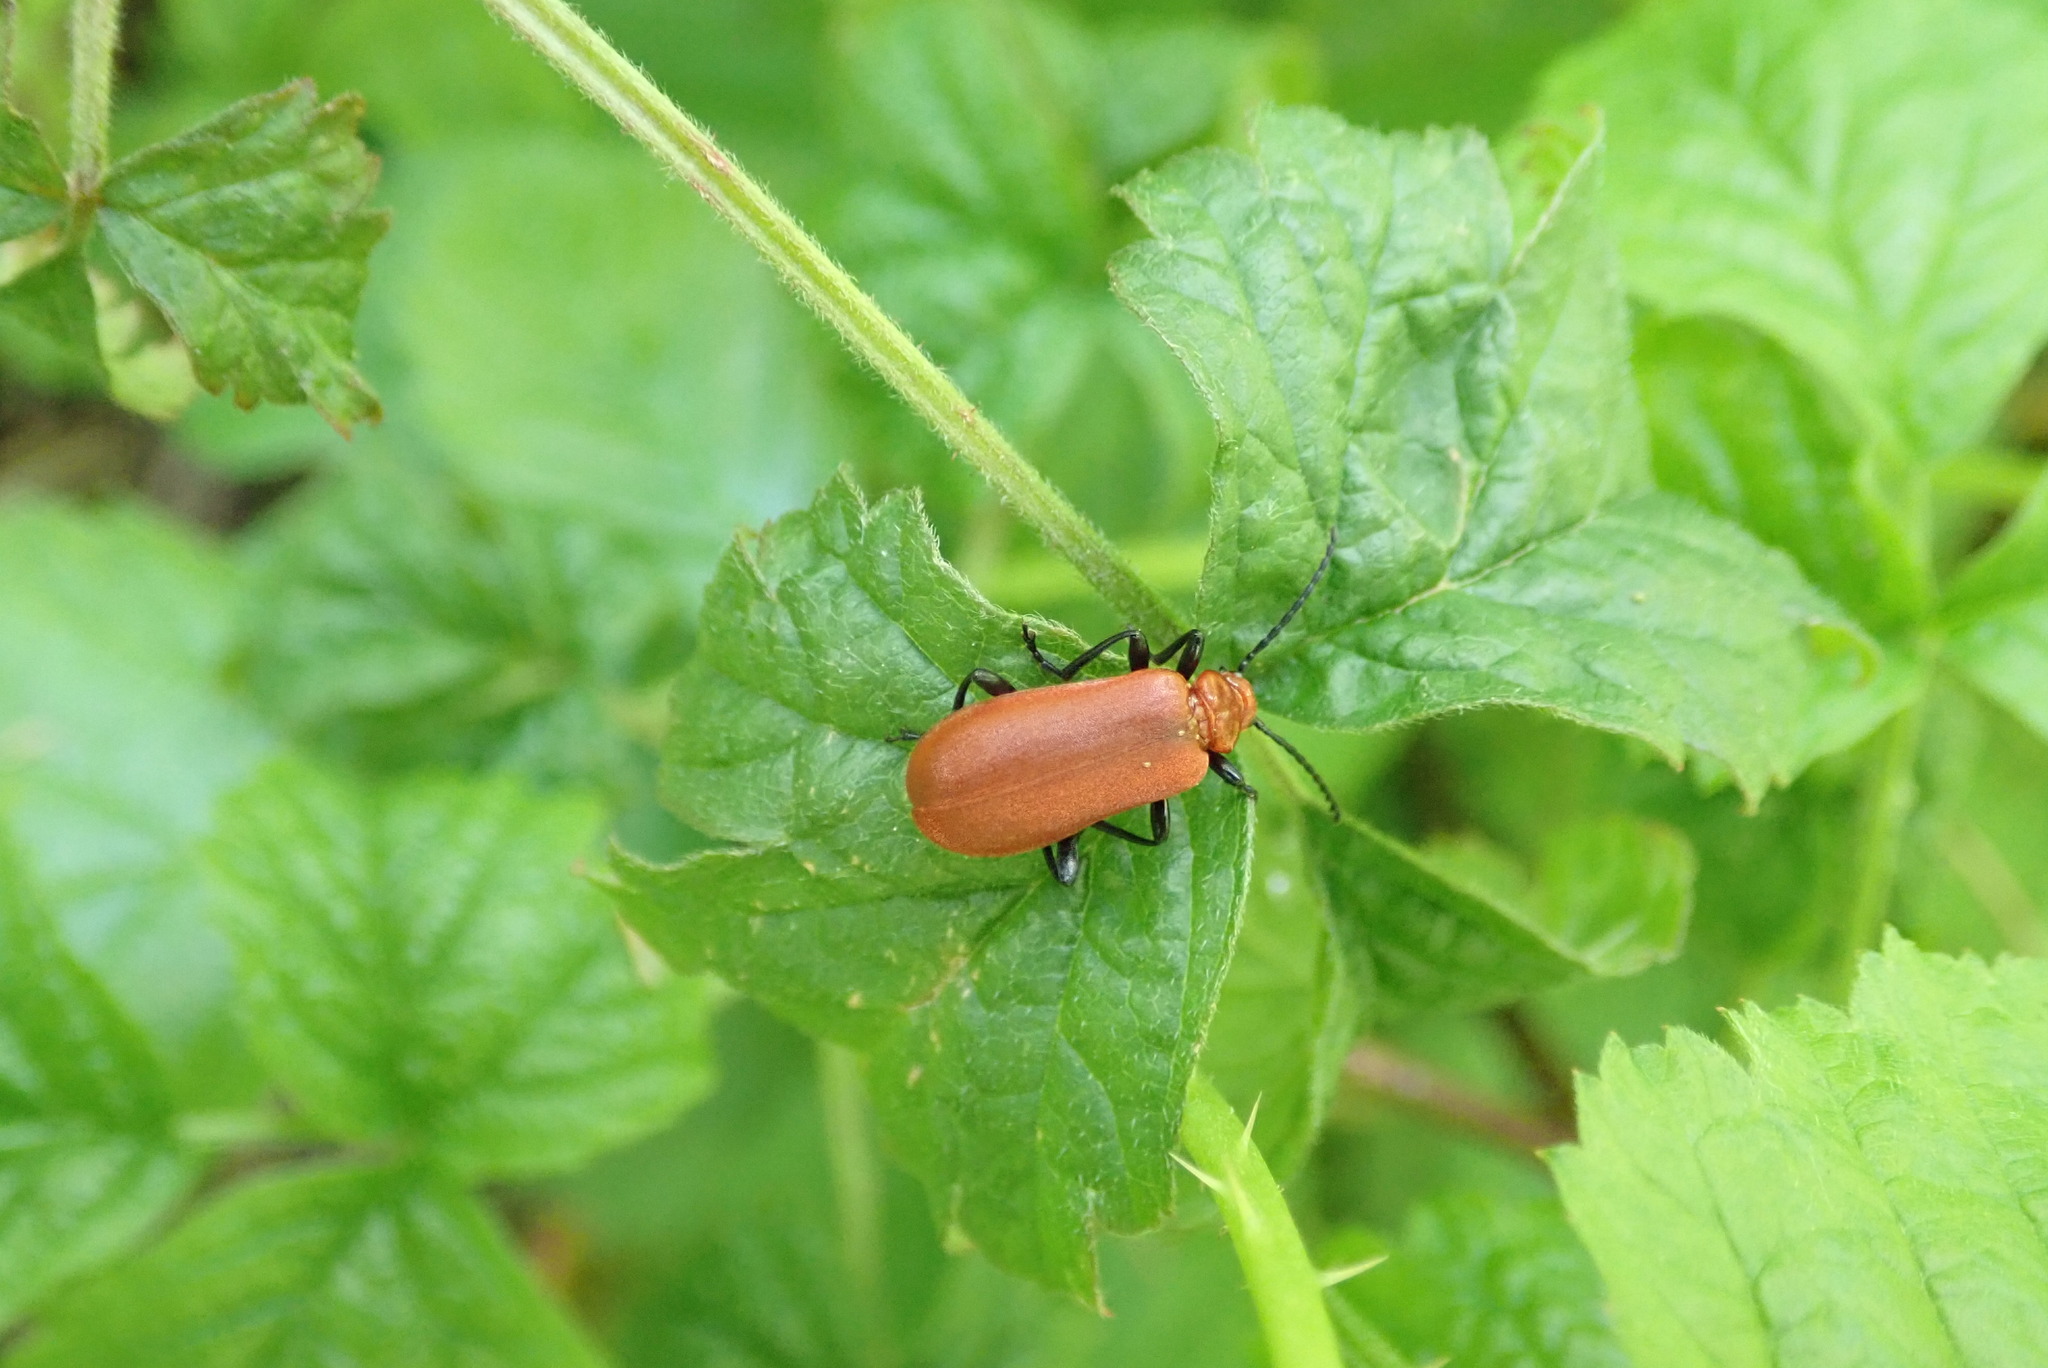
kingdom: Animalia
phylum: Arthropoda
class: Insecta
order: Coleoptera
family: Pyrochroidae
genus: Pyrochroa
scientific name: Pyrochroa serraticornis
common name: Red-headed cardinal beetle
